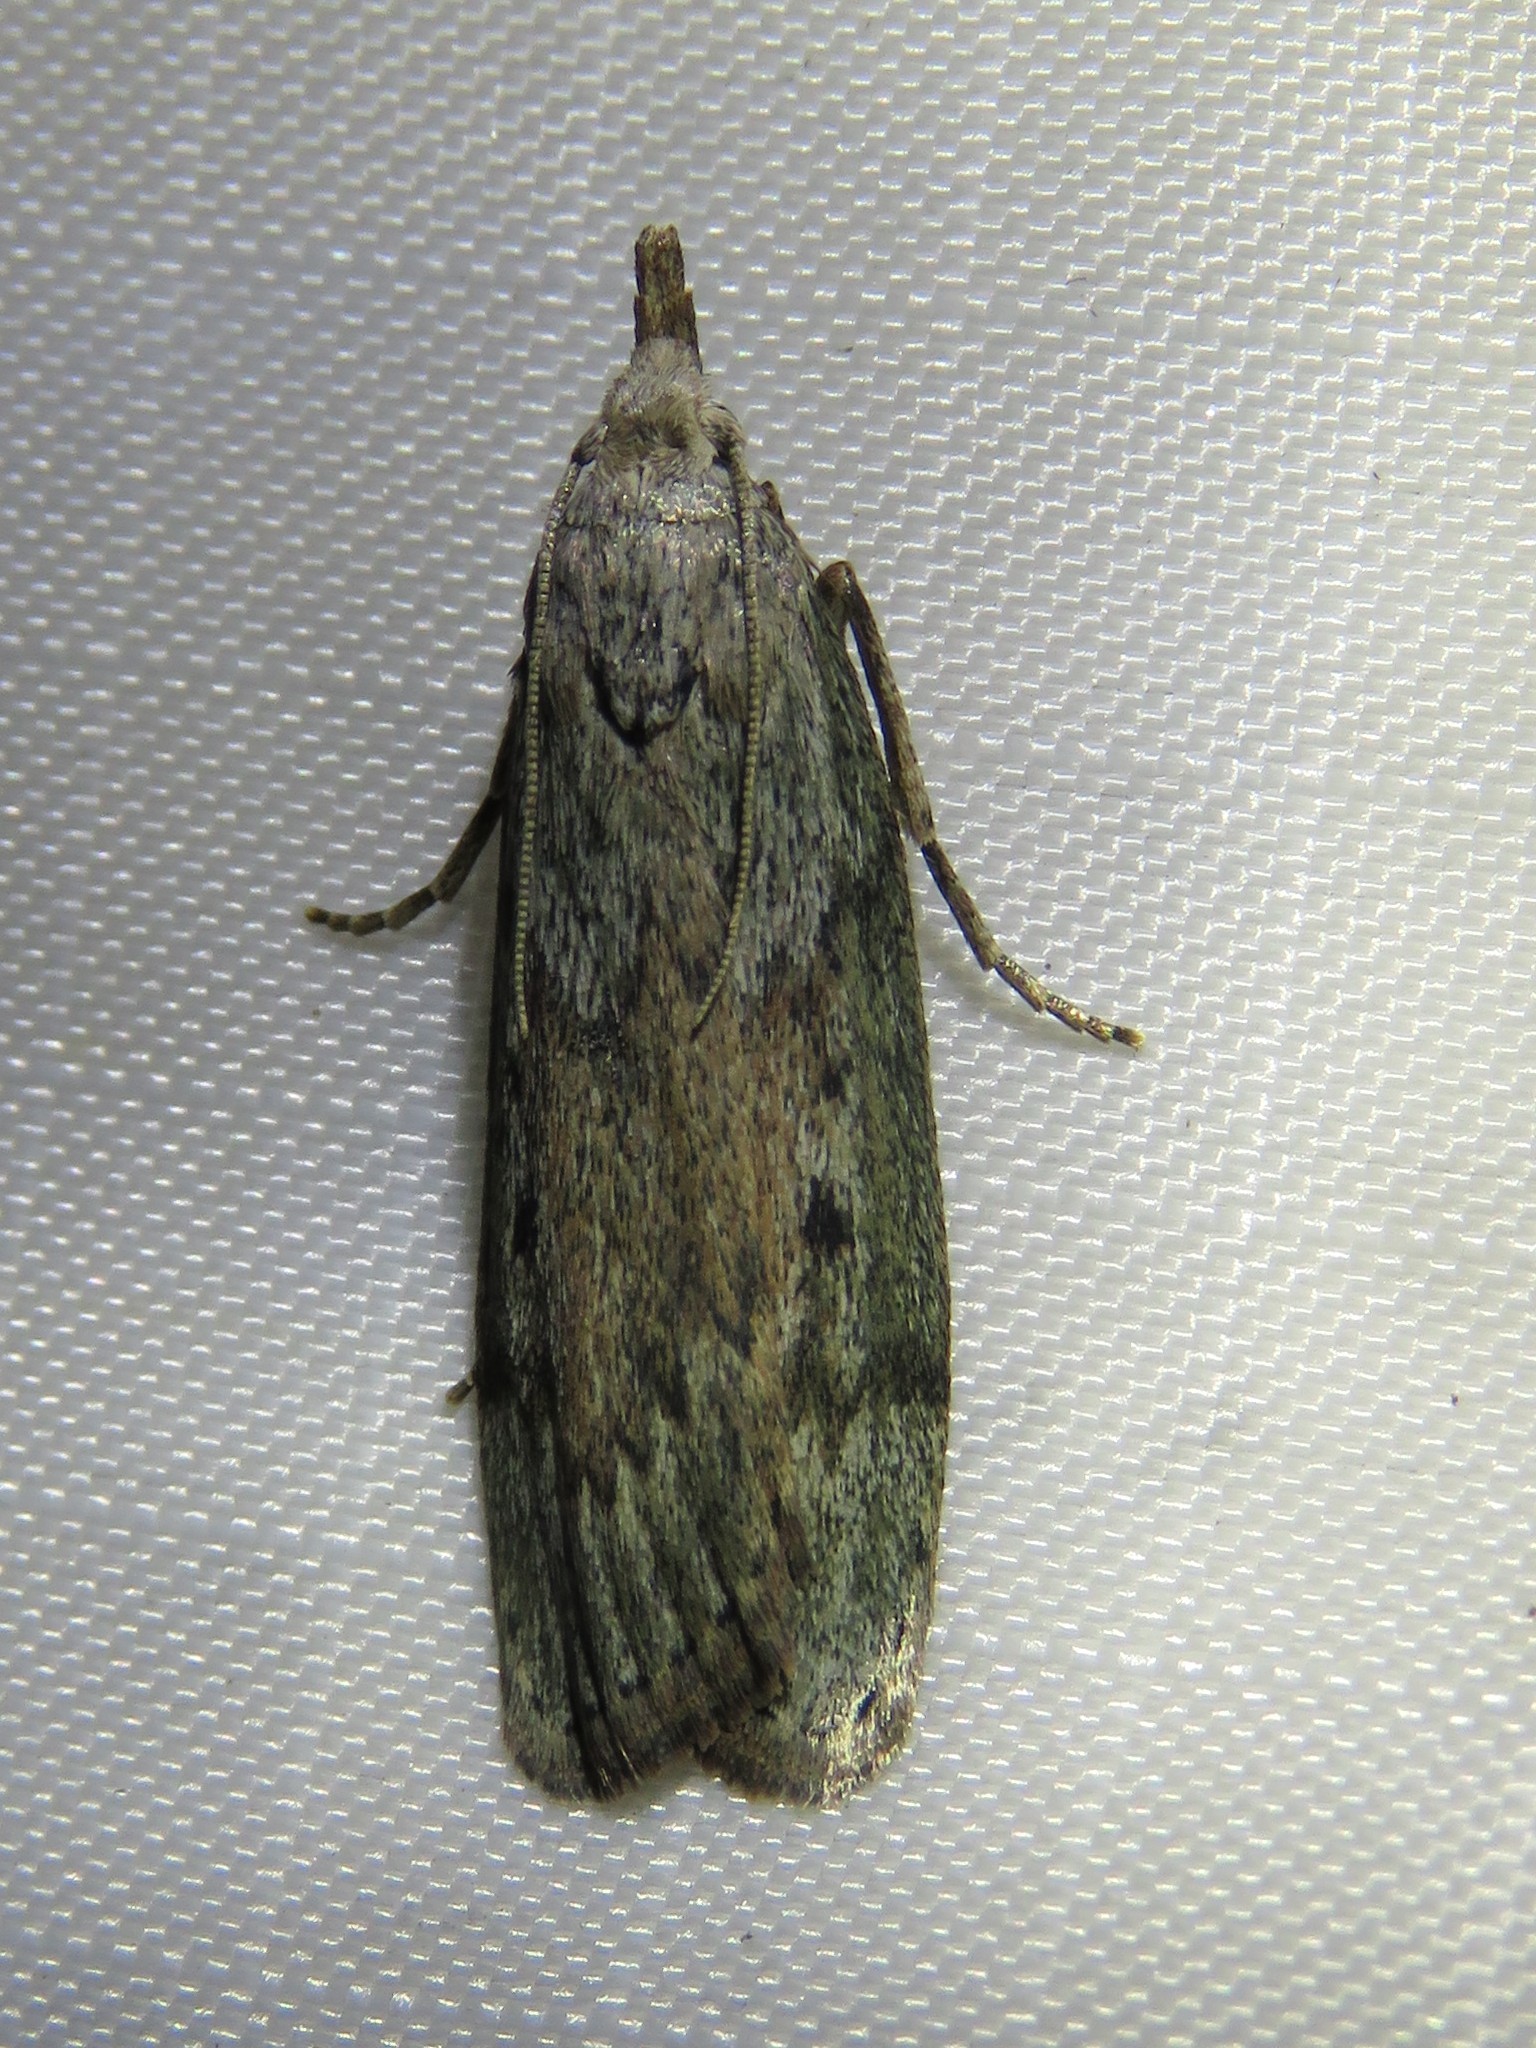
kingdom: Animalia
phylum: Arthropoda
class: Insecta
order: Lepidoptera
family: Pyralidae
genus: Aphomia
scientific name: Aphomia sociella
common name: Bee moth
